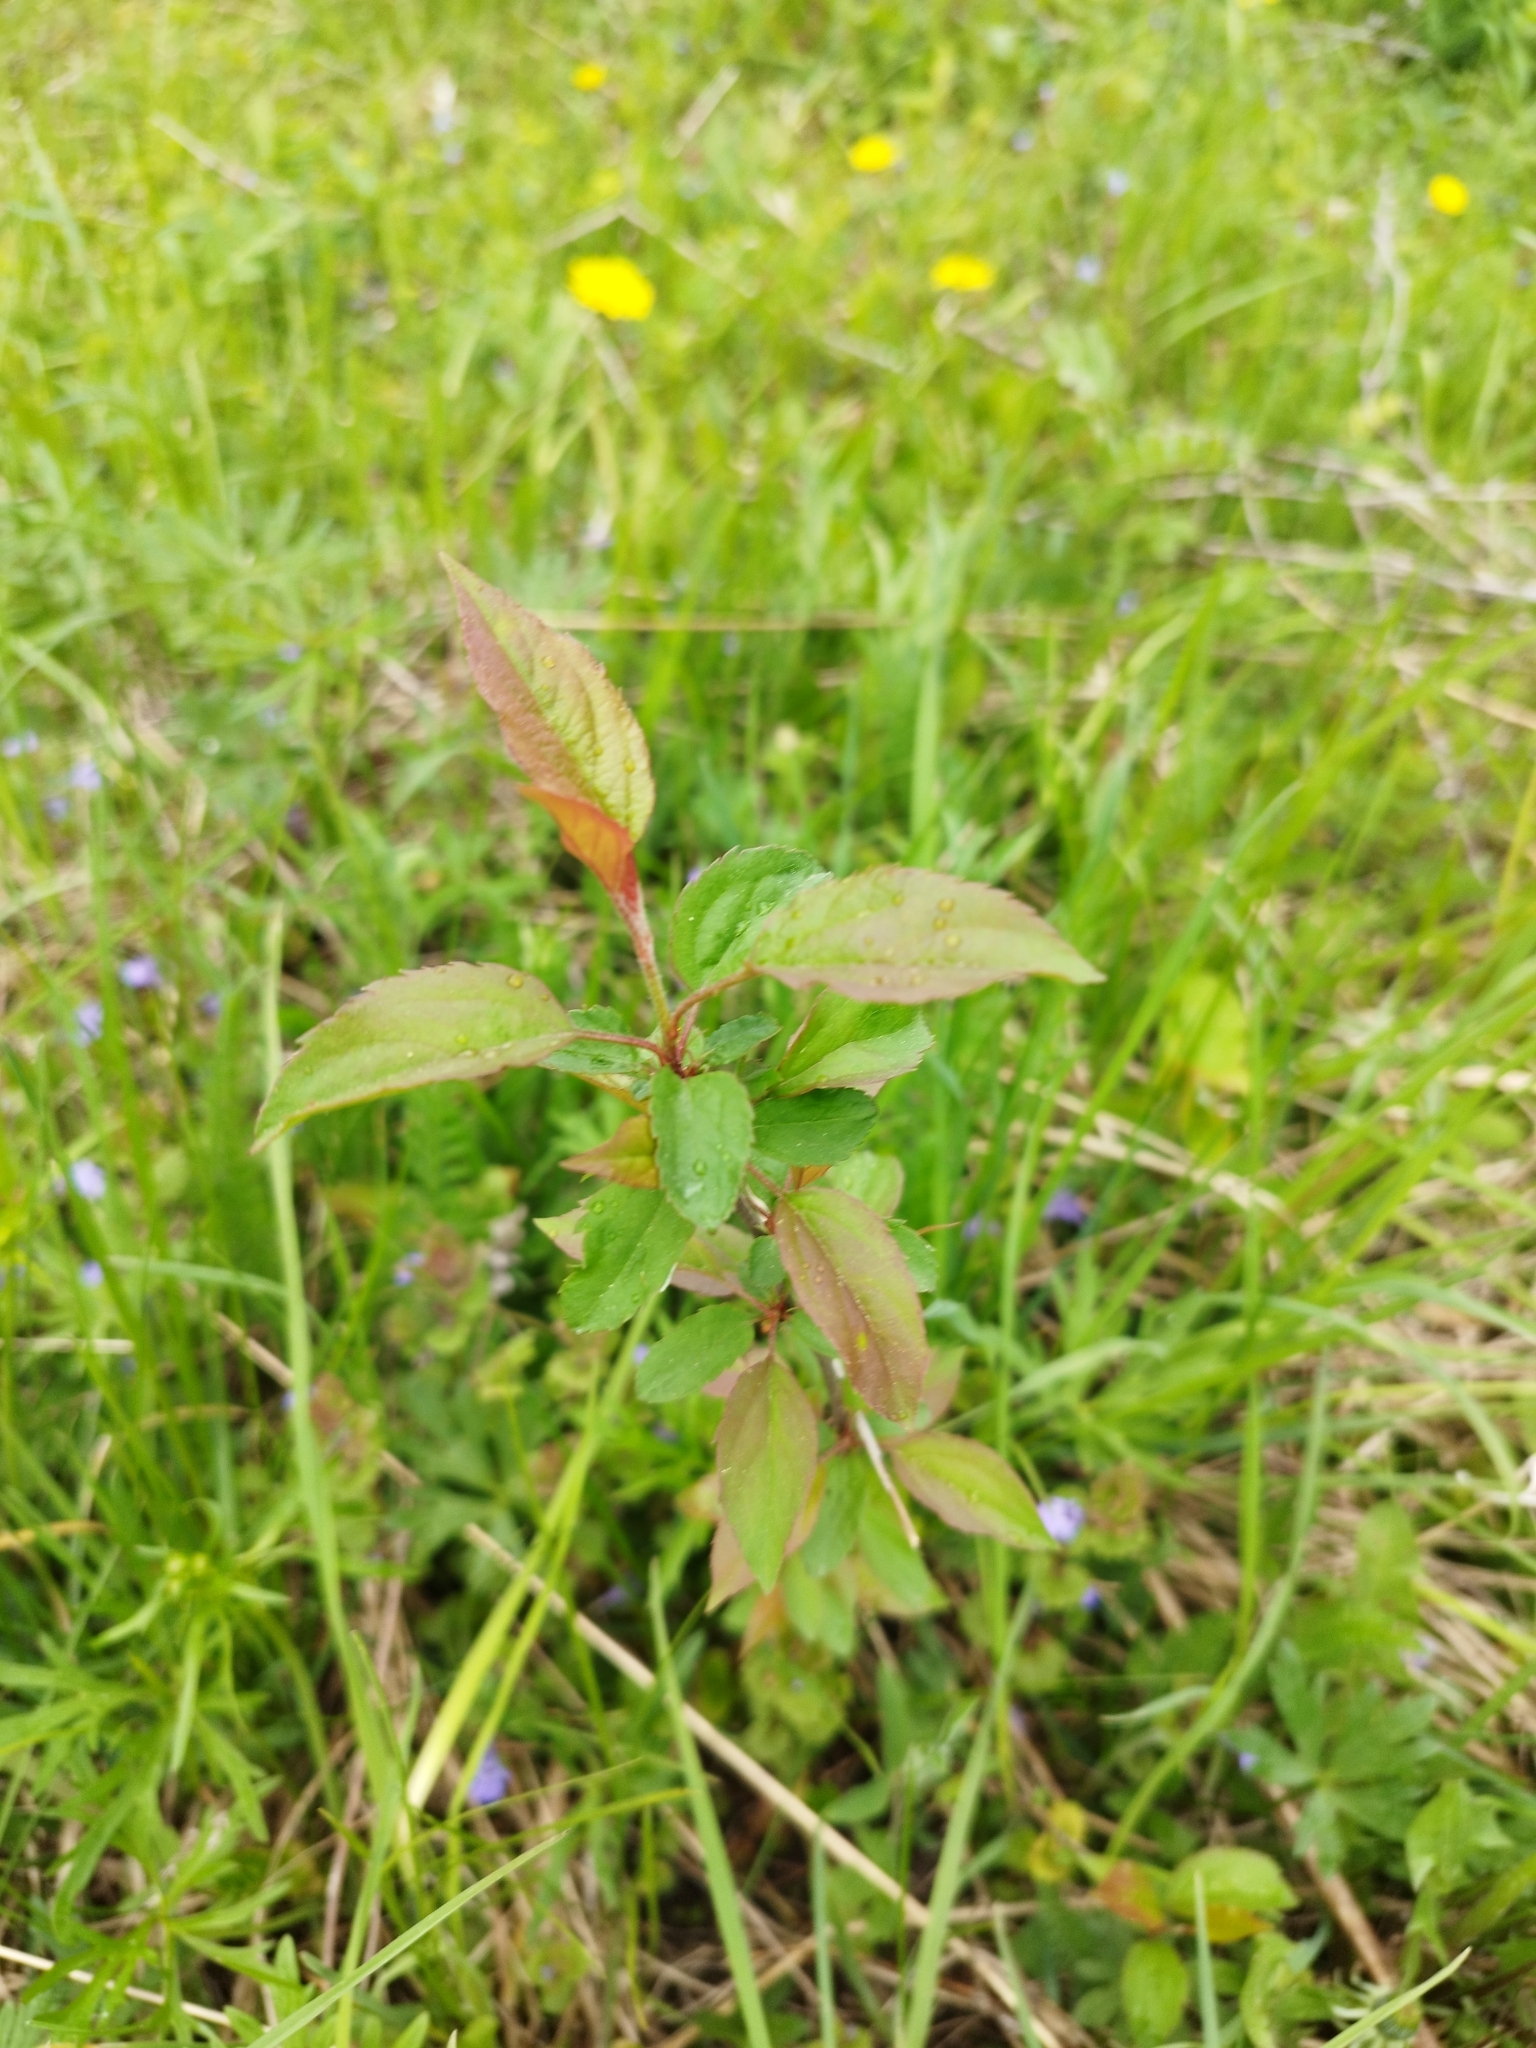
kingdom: Plantae
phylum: Tracheophyta
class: Magnoliopsida
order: Rosales
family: Rosaceae
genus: Malus
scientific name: Malus domestica
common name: Apple
